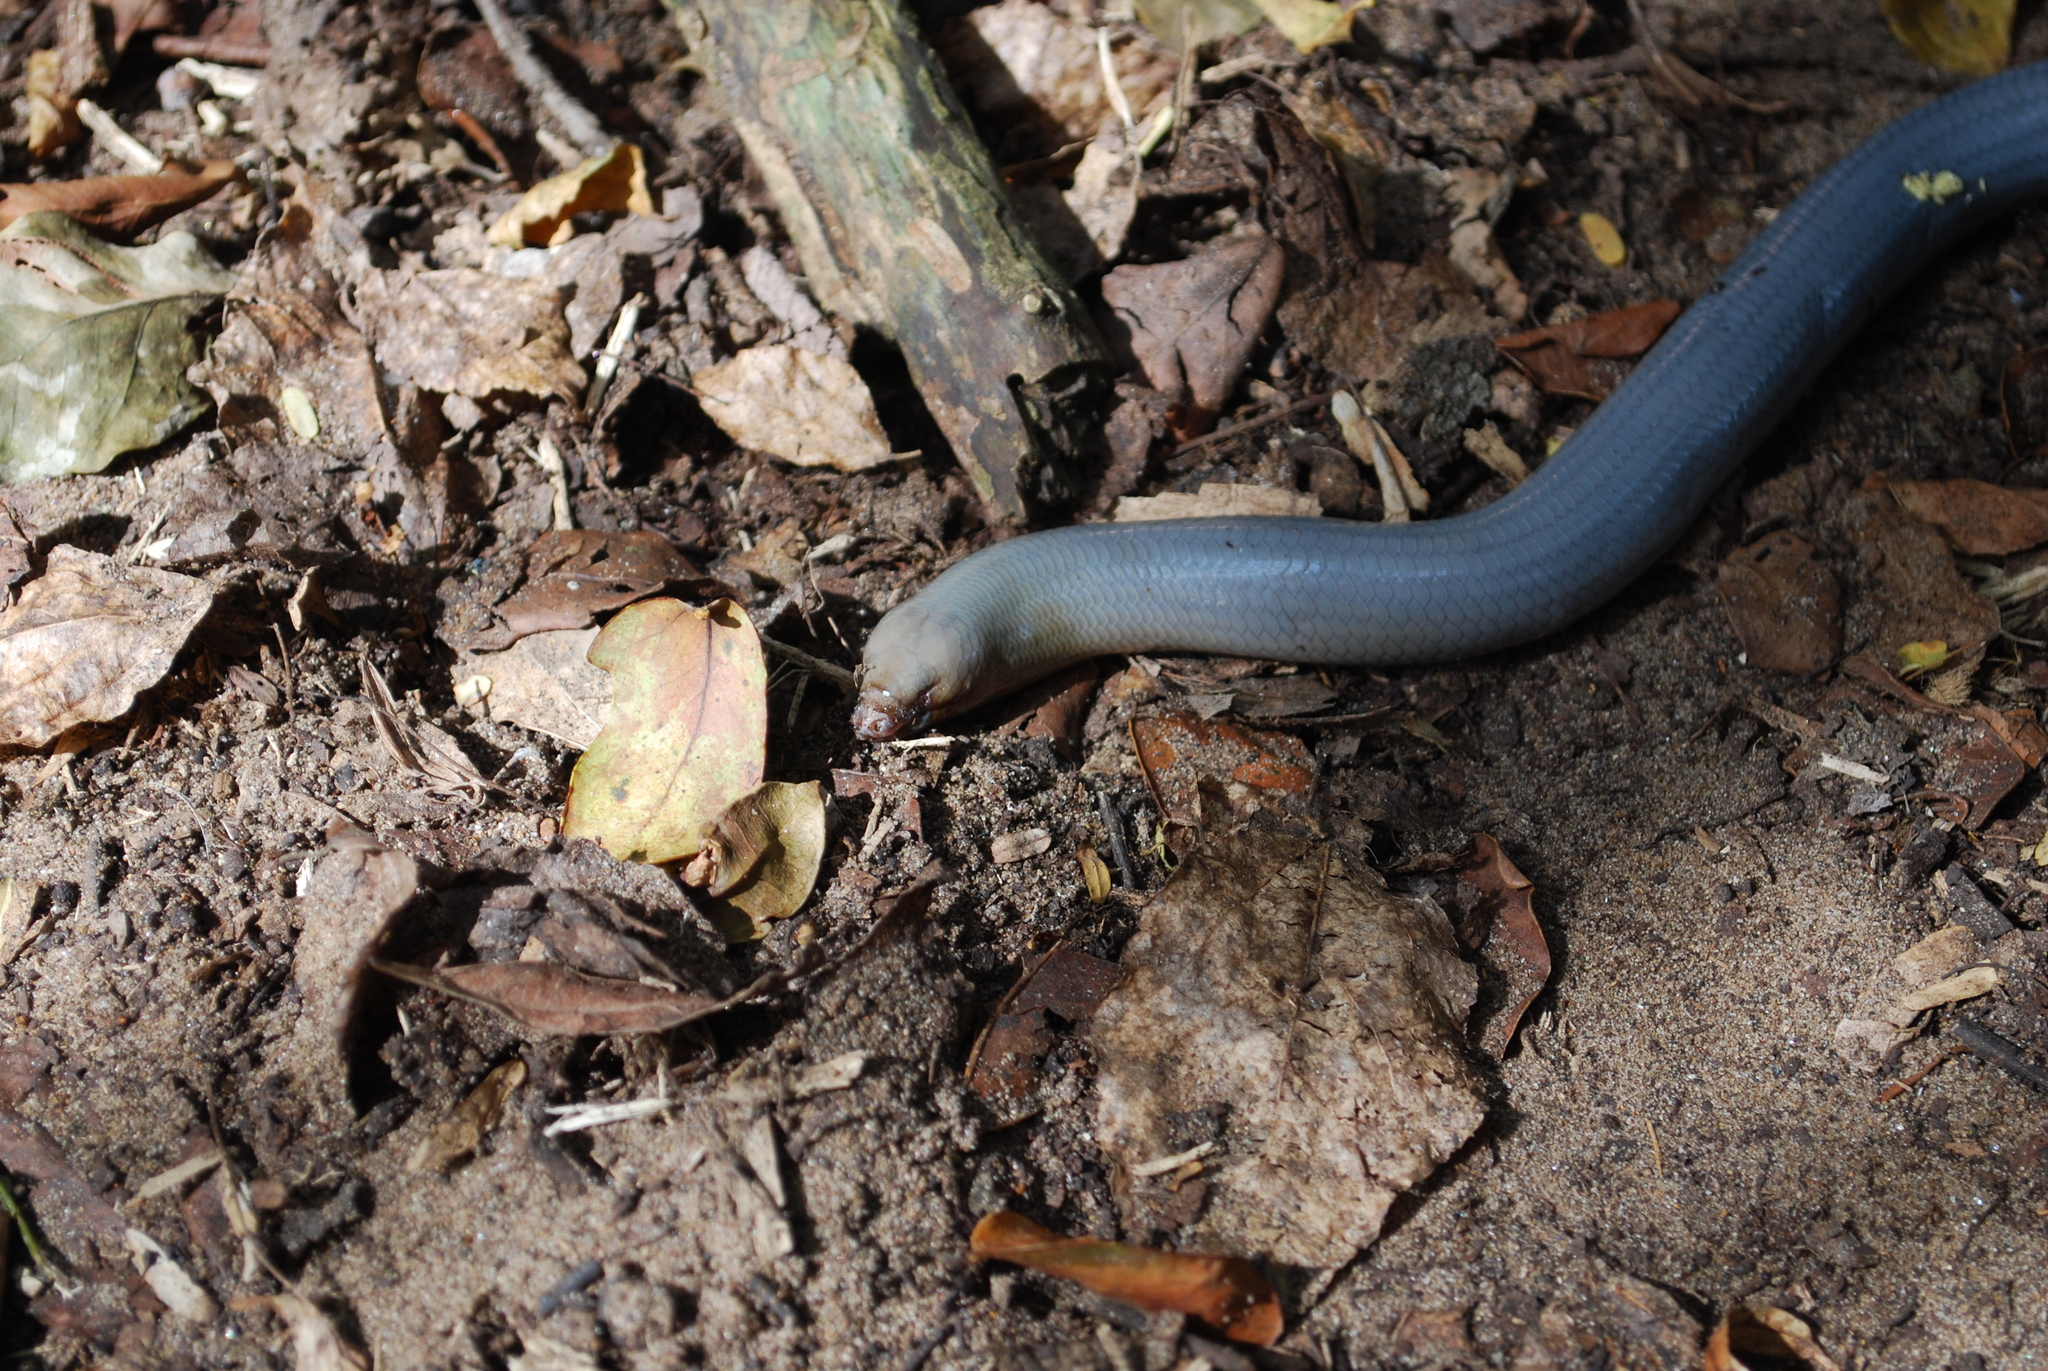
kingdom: Animalia
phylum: Chordata
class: Squamata
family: Scincidae
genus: Acontias
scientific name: Acontias plumbeus
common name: Giant lance skink
